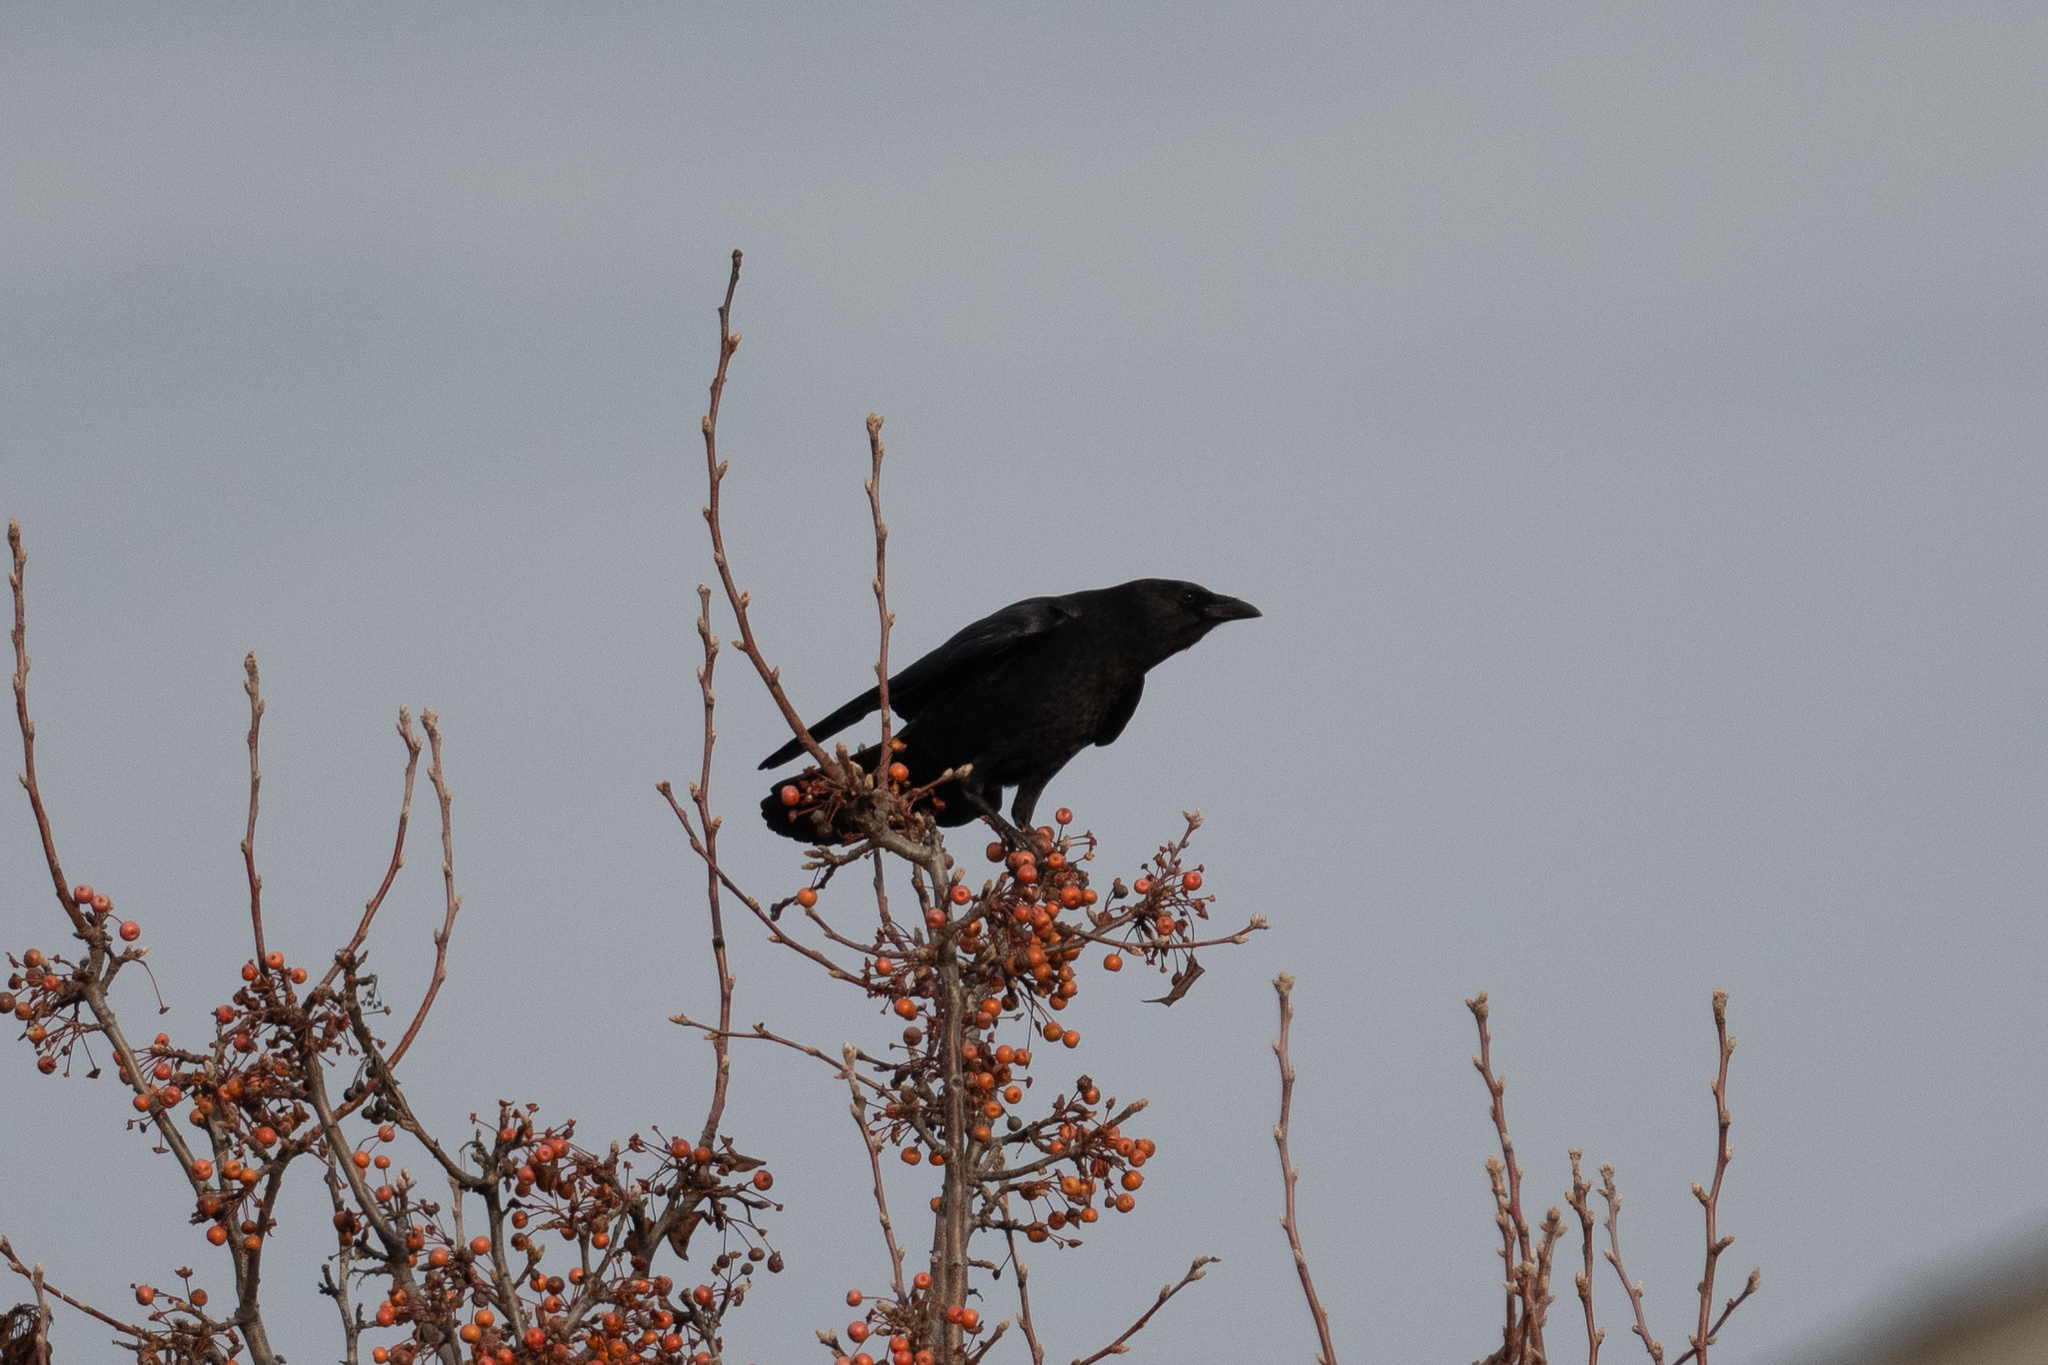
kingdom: Animalia
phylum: Chordata
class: Aves
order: Passeriformes
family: Corvidae
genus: Corvus
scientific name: Corvus corax
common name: Common raven
